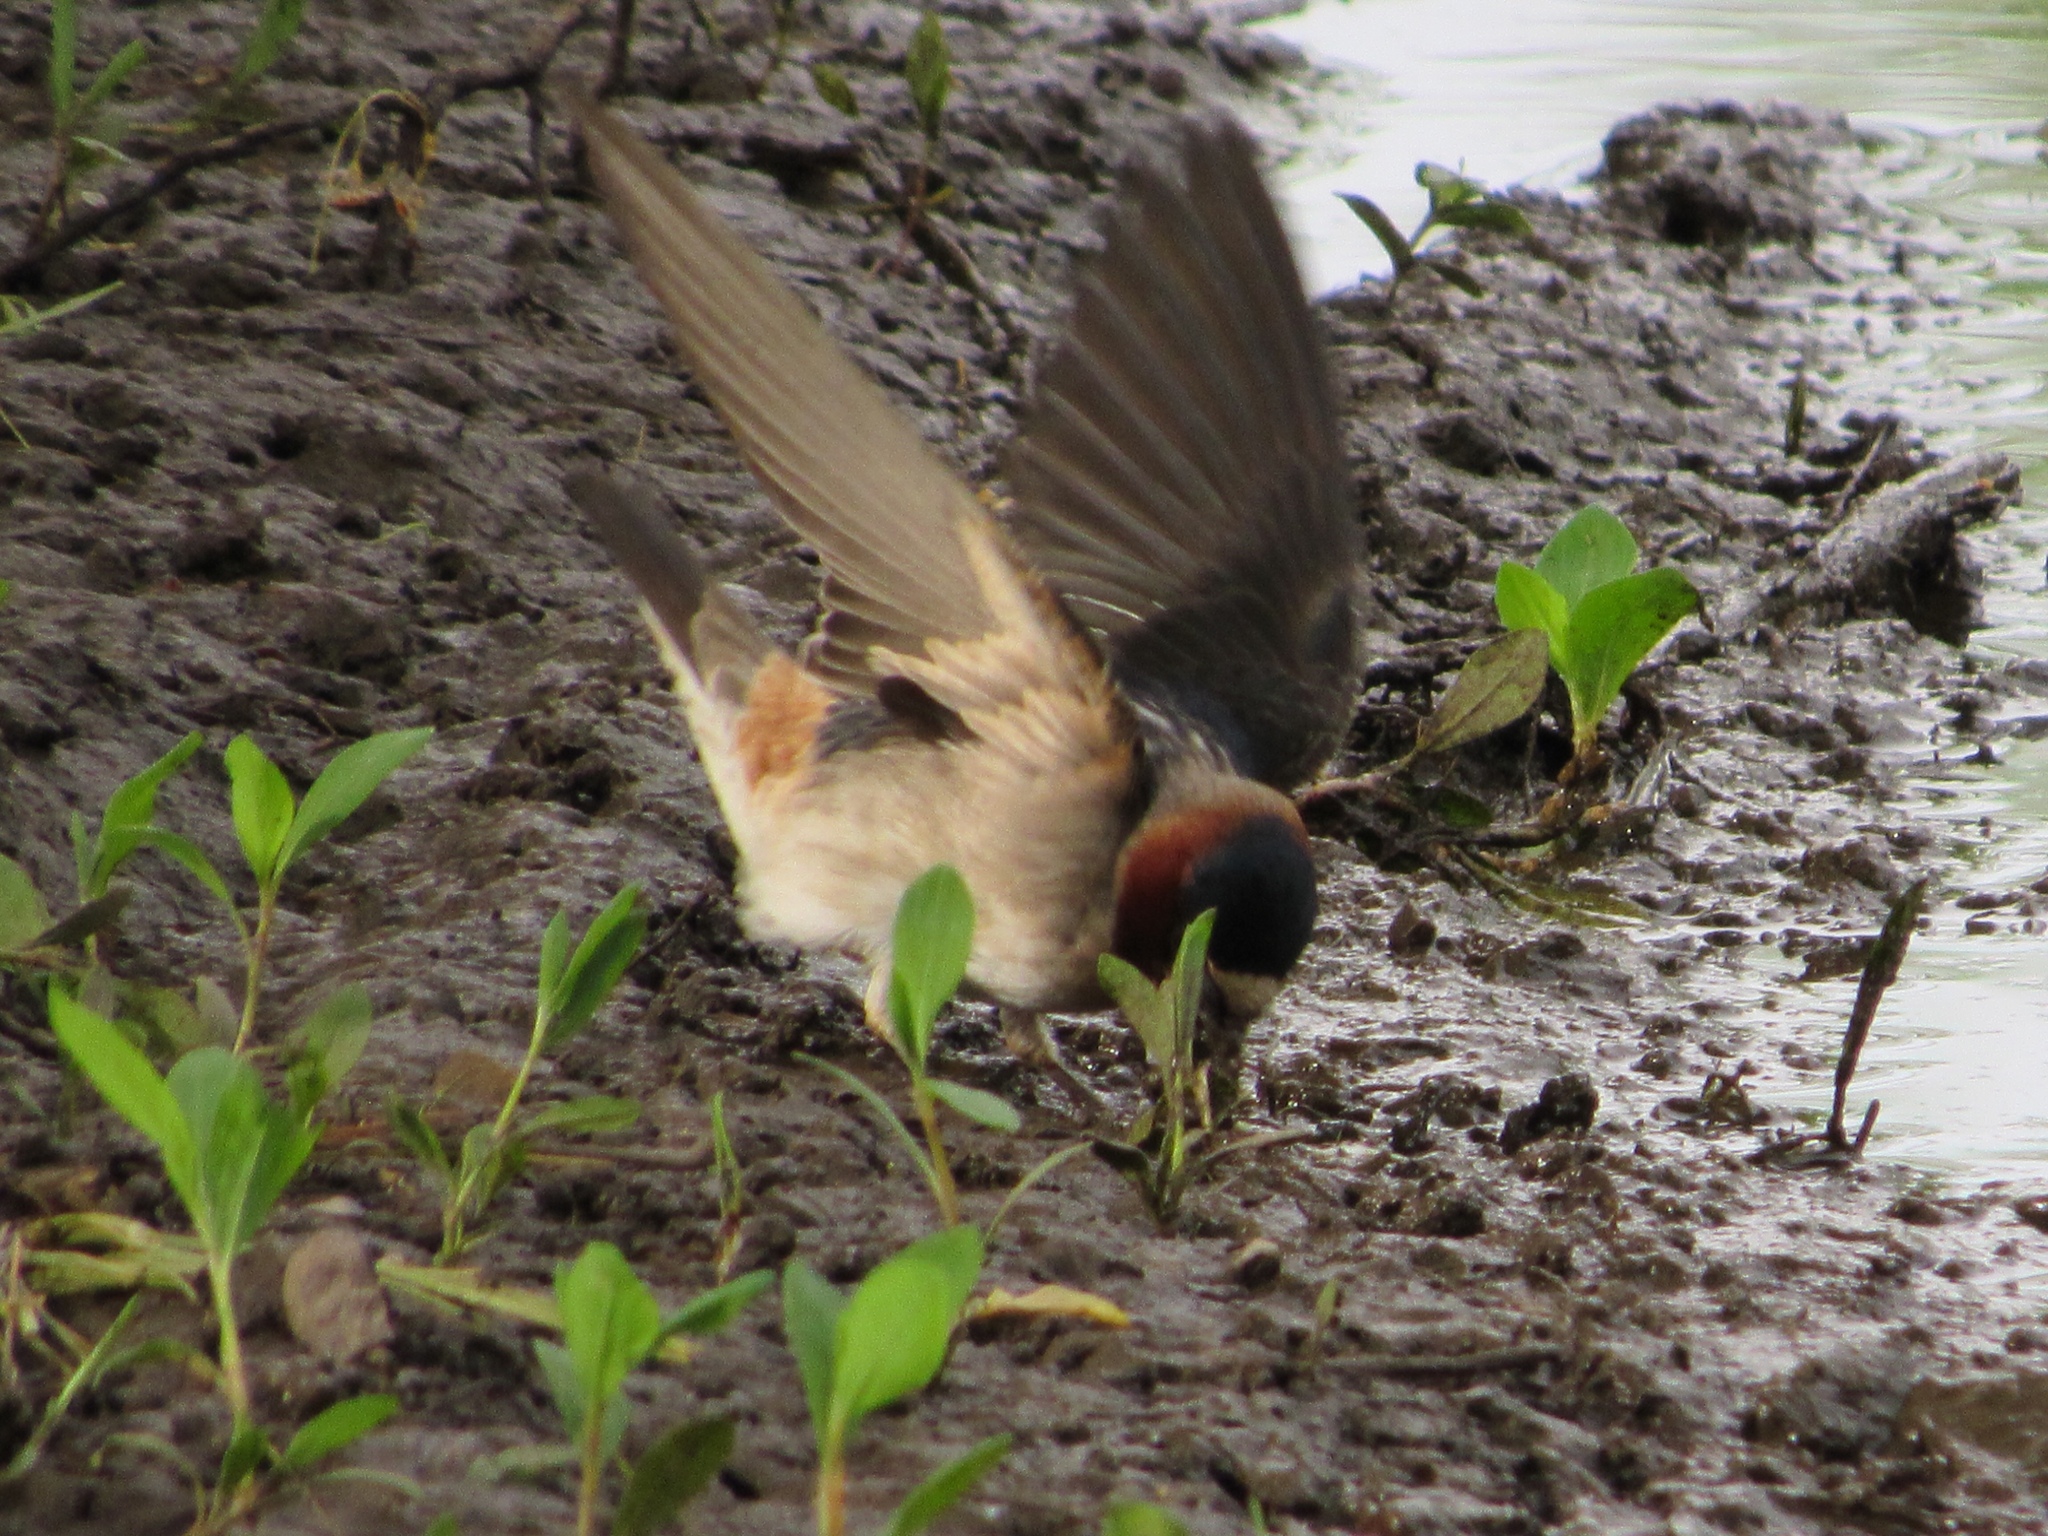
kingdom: Animalia
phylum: Chordata
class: Aves
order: Passeriformes
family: Hirundinidae
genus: Petrochelidon
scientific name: Petrochelidon pyrrhonota
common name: American cliff swallow
